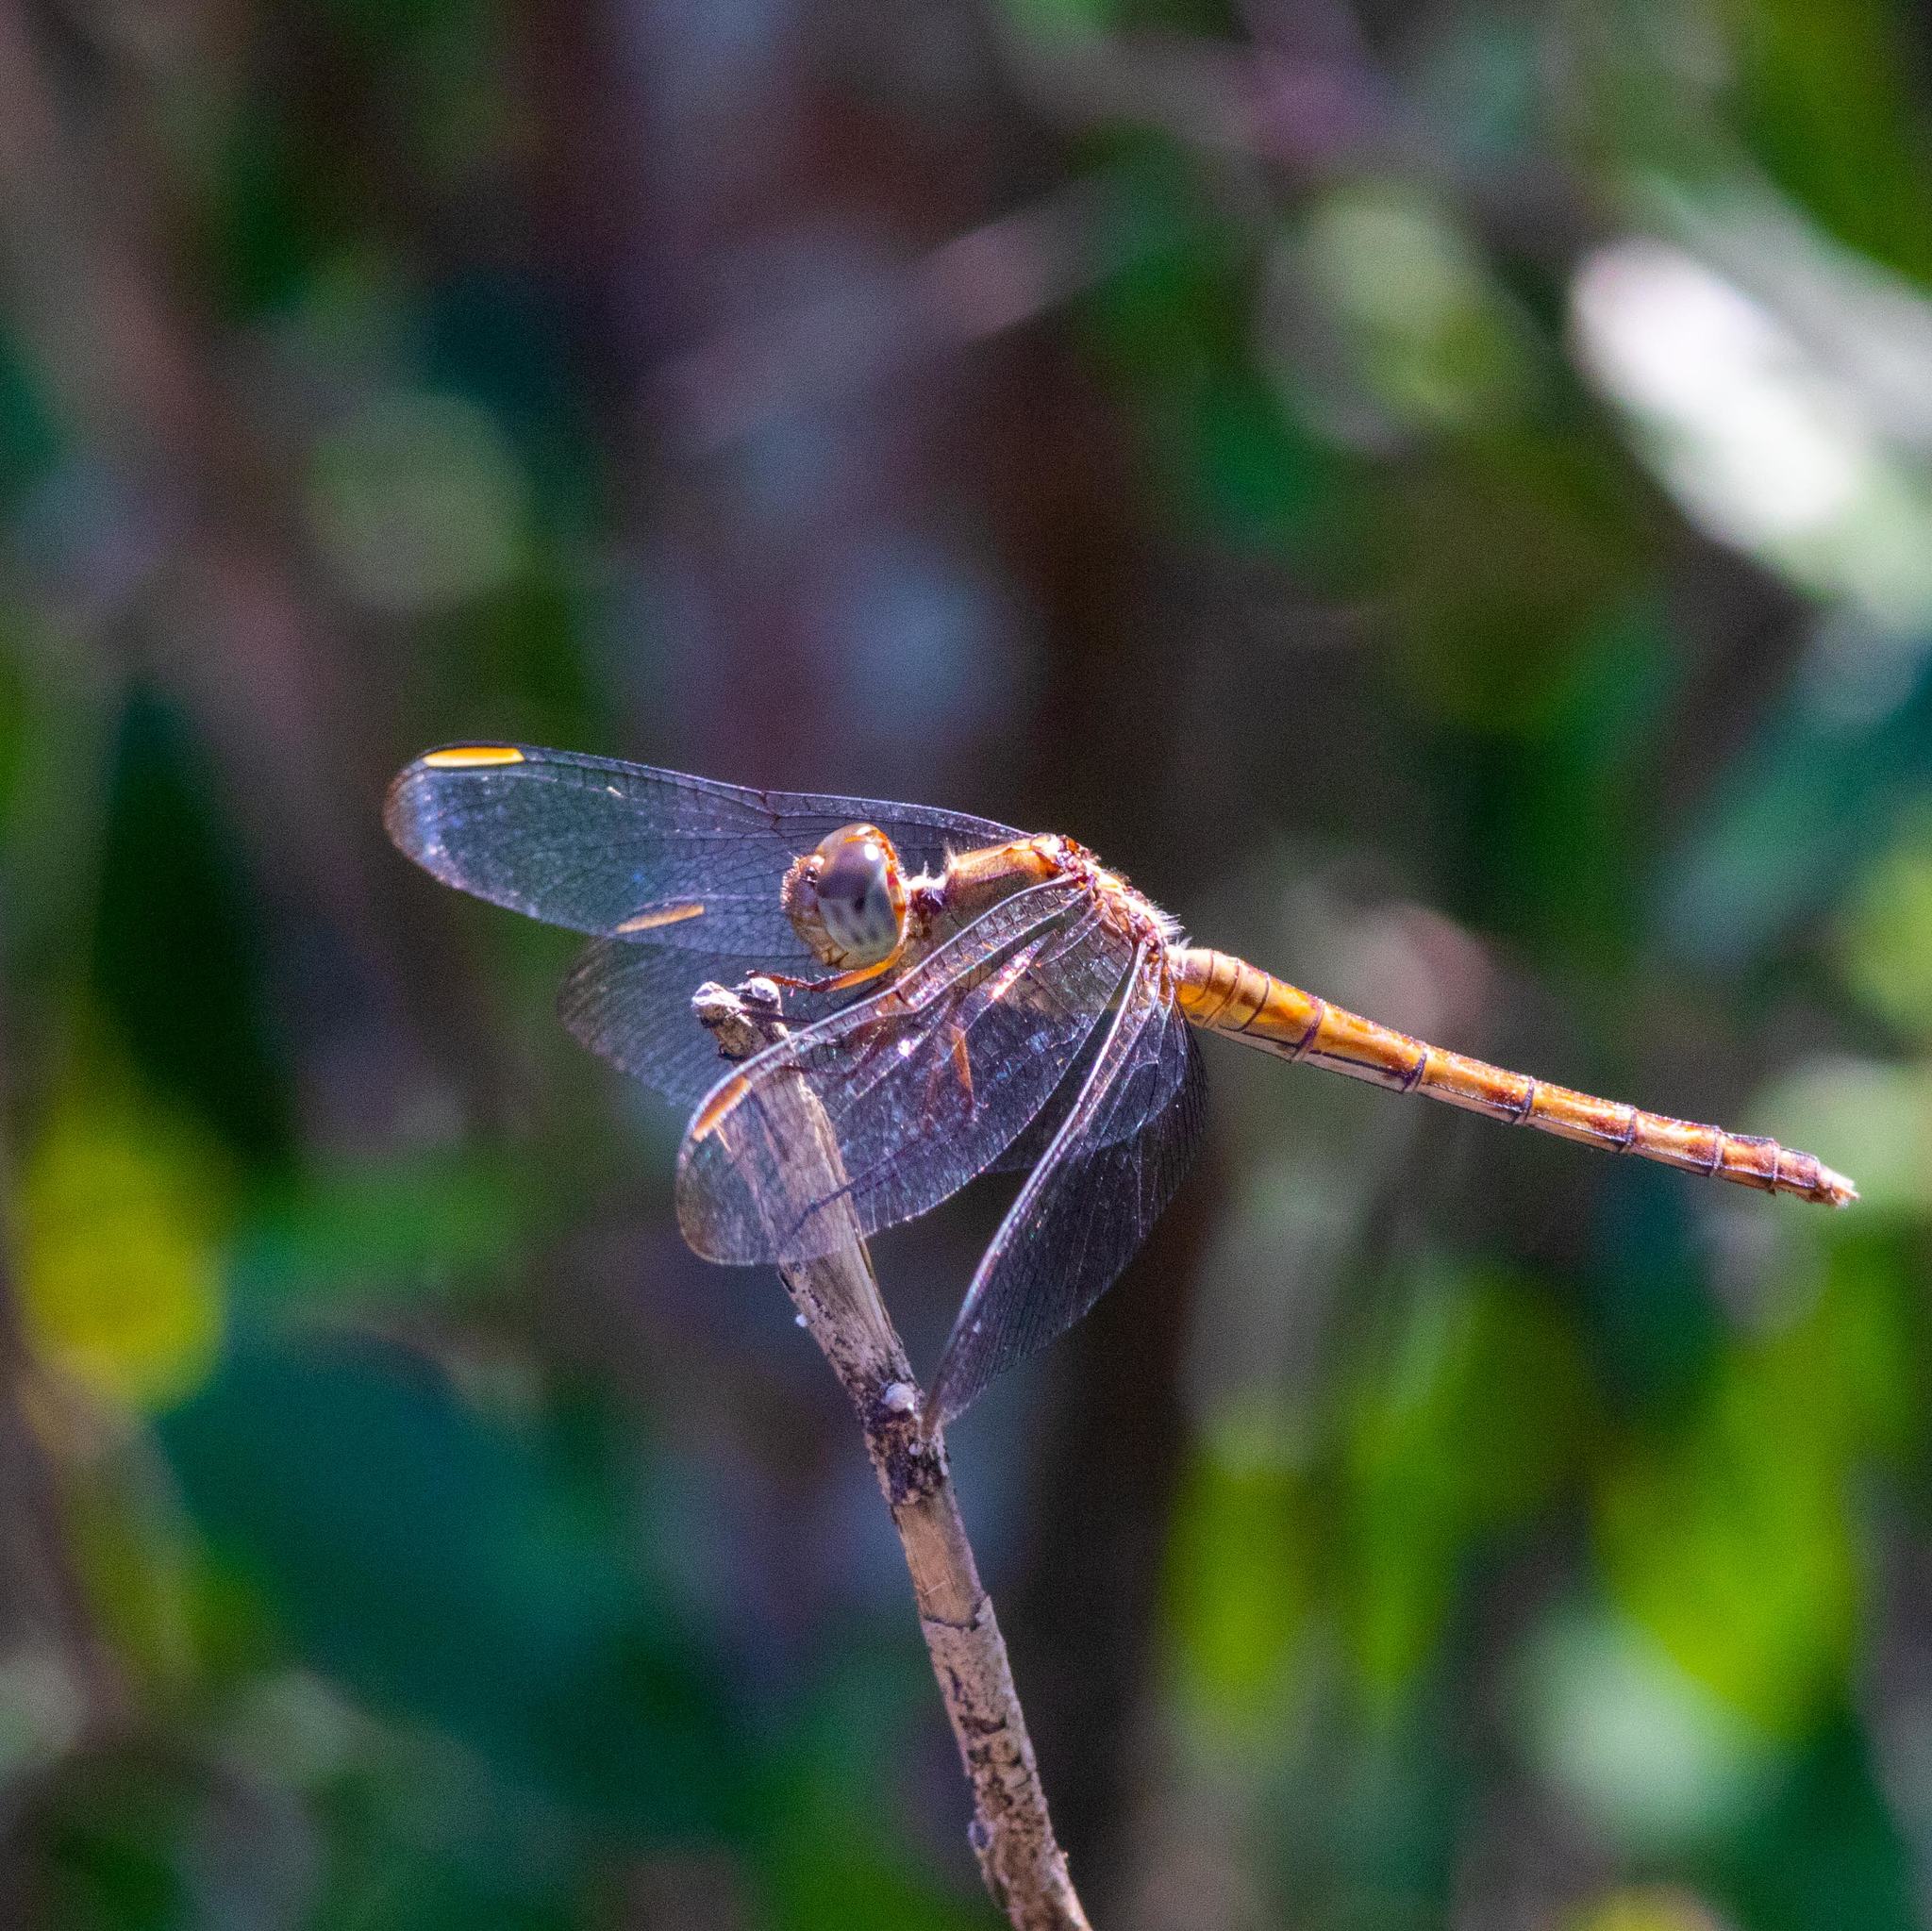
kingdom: Animalia
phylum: Arthropoda
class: Insecta
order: Odonata
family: Libellulidae
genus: Erythrodiplax
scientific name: Erythrodiplax umbrata
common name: Band-winged dragonlet
